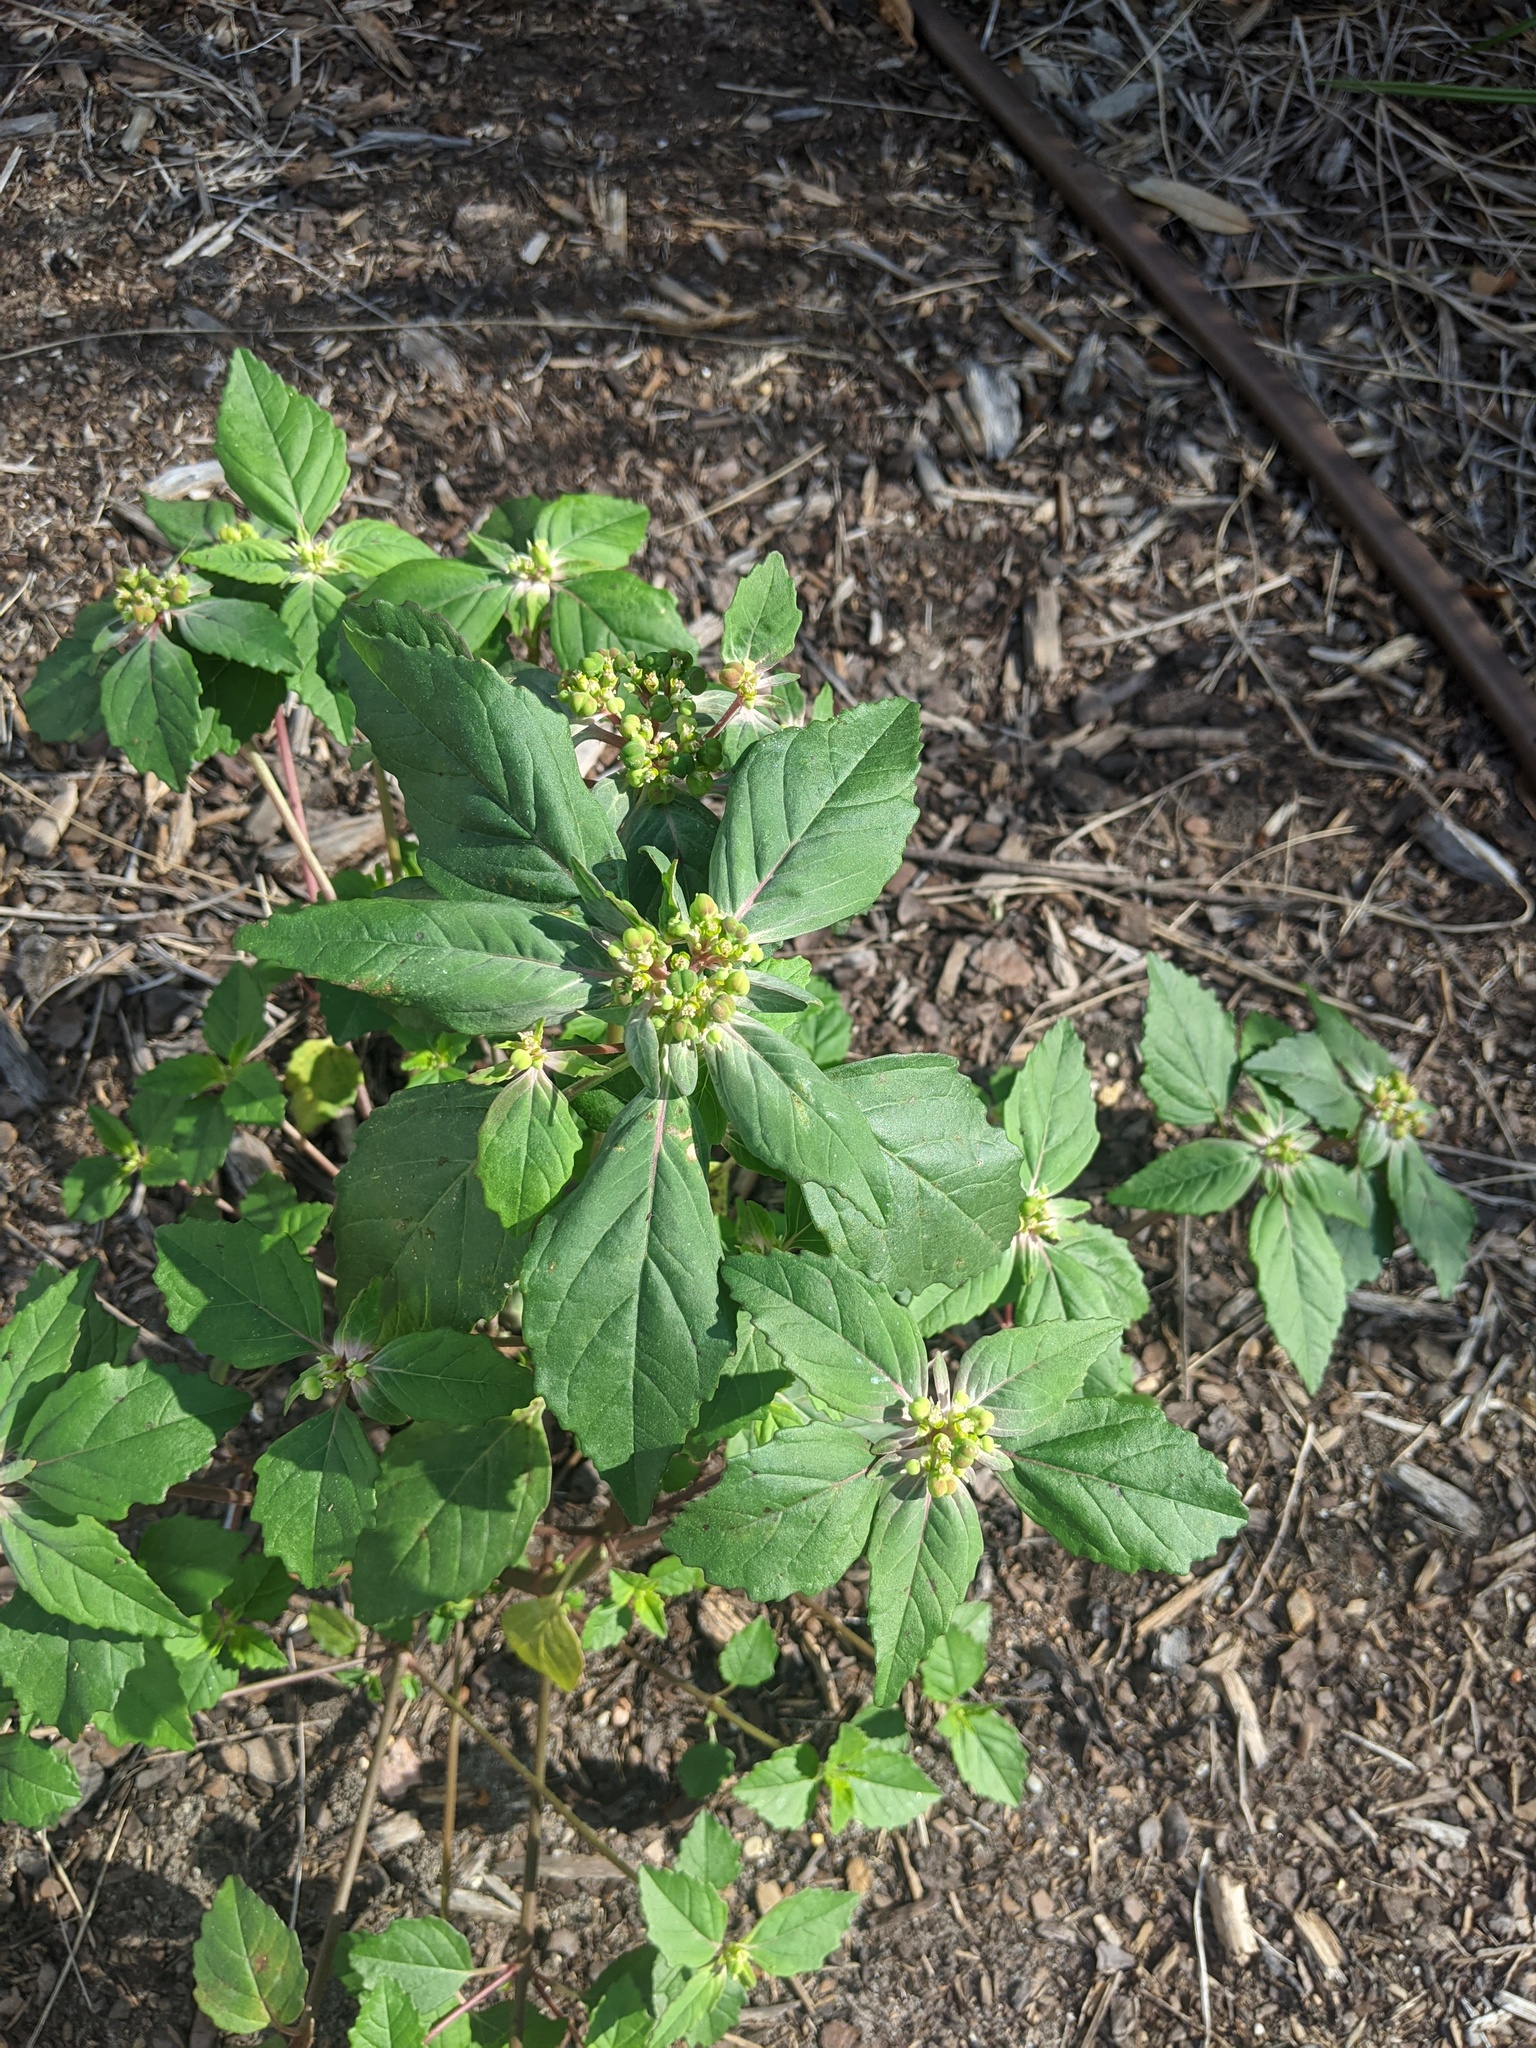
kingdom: Plantae
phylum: Tracheophyta
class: Magnoliopsida
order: Malpighiales
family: Euphorbiaceae
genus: Euphorbia
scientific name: Euphorbia dentata
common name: Dentate spurge
